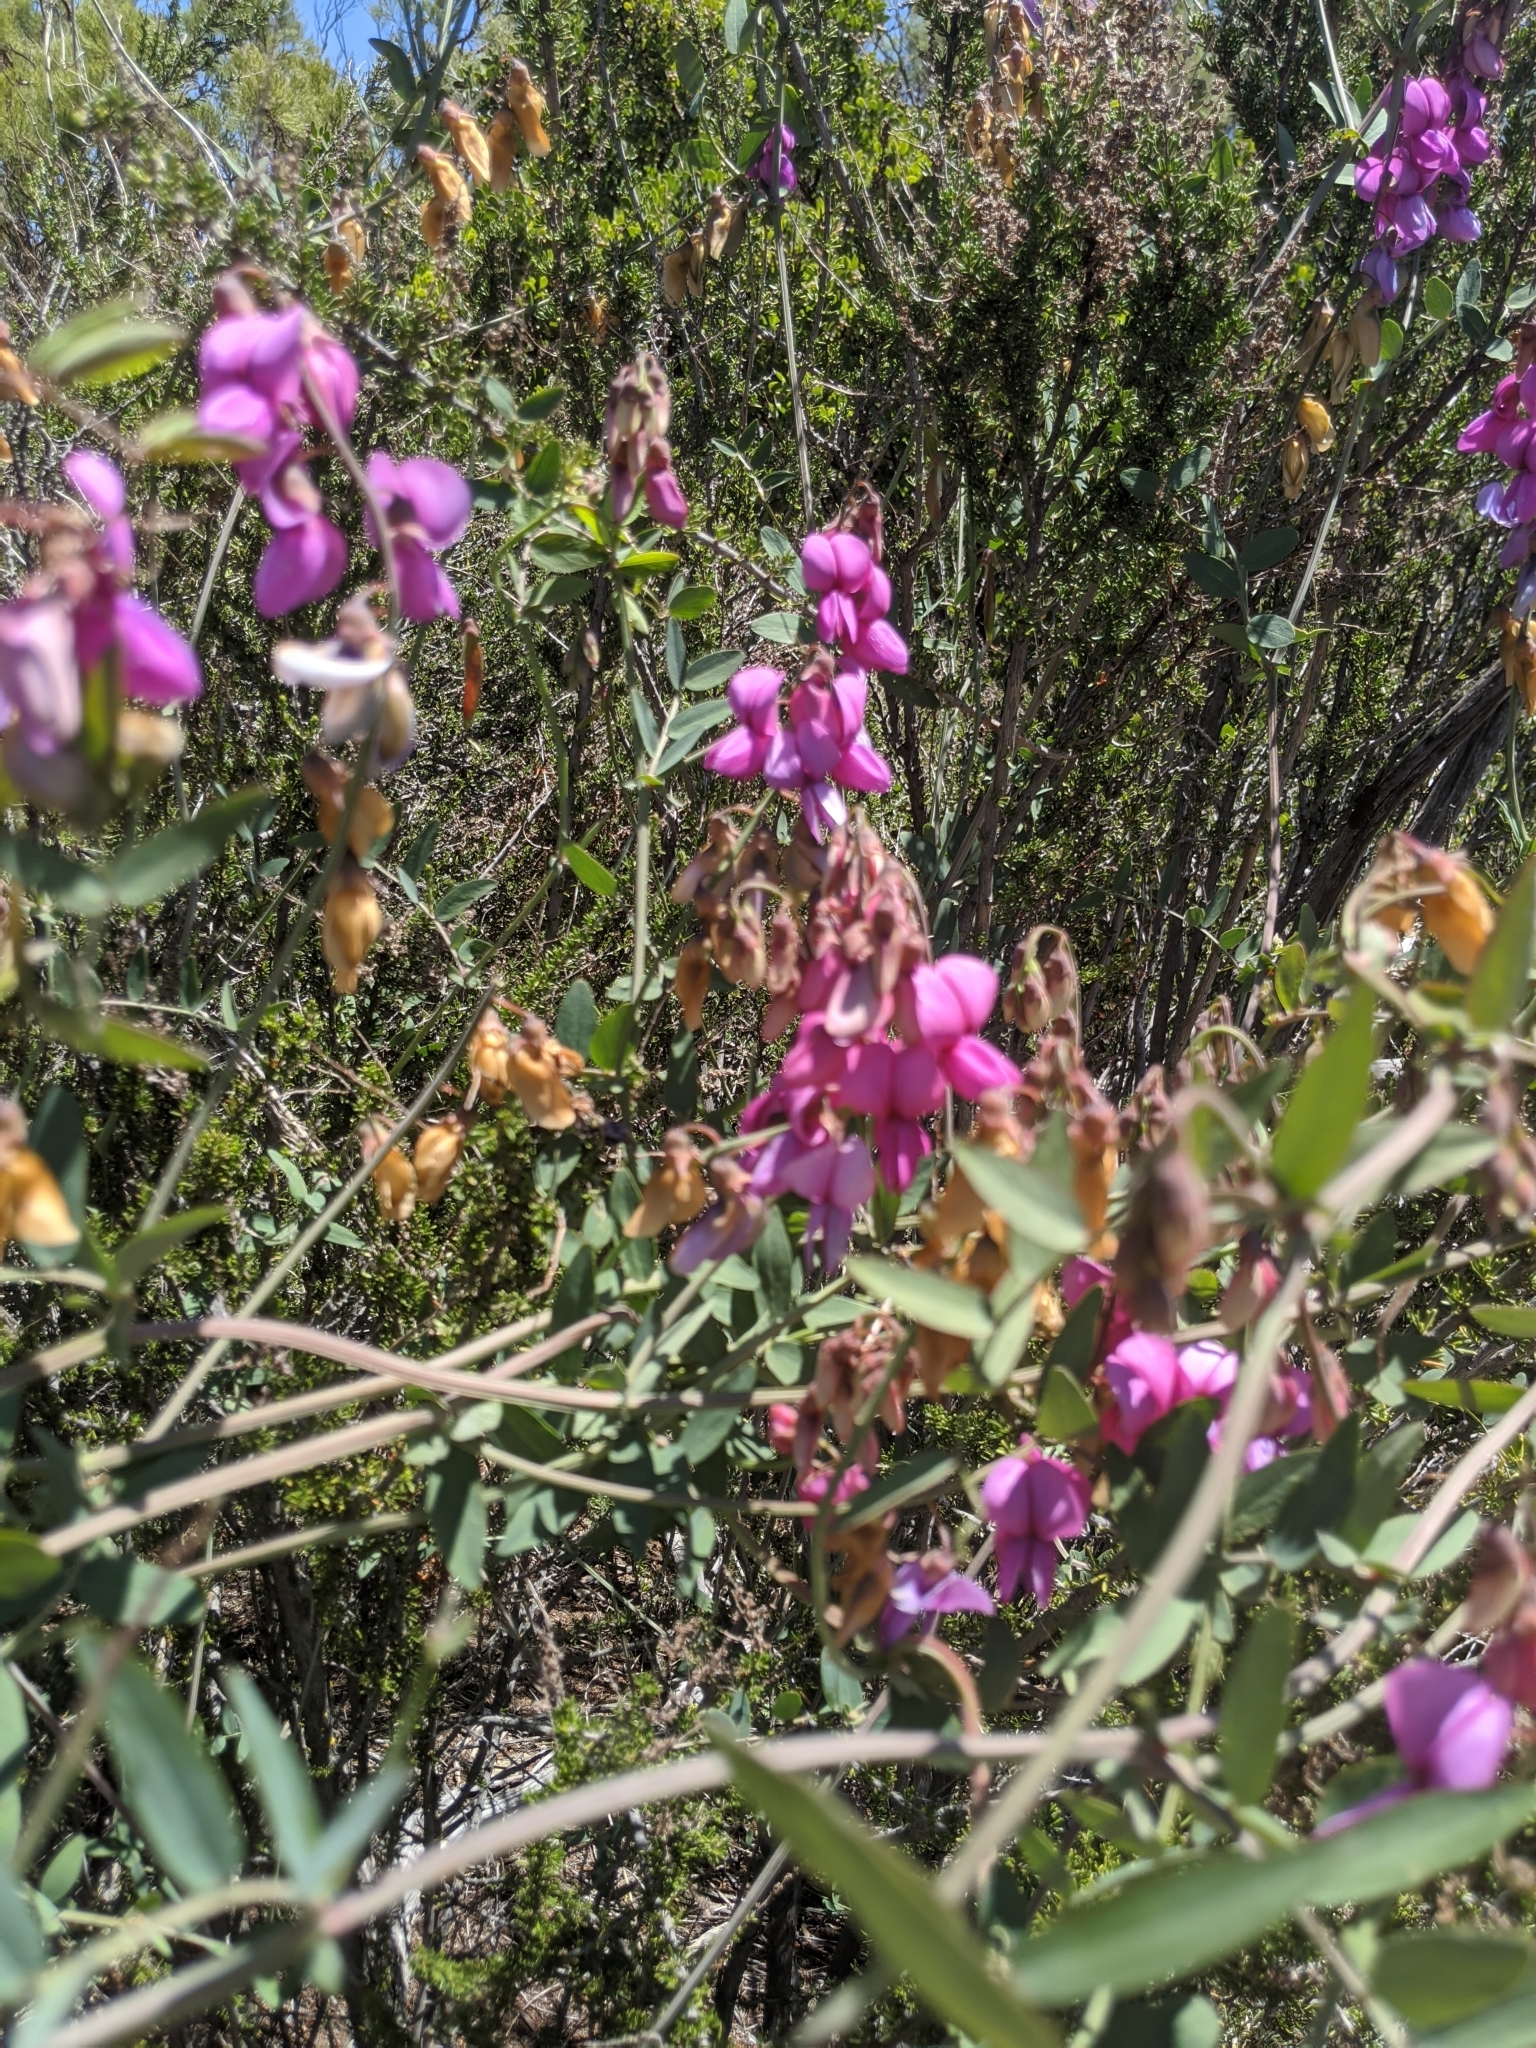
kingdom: Plantae
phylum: Tracheophyta
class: Magnoliopsida
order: Fabales
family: Fabaceae
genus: Lathyrus
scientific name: Lathyrus vestitus
